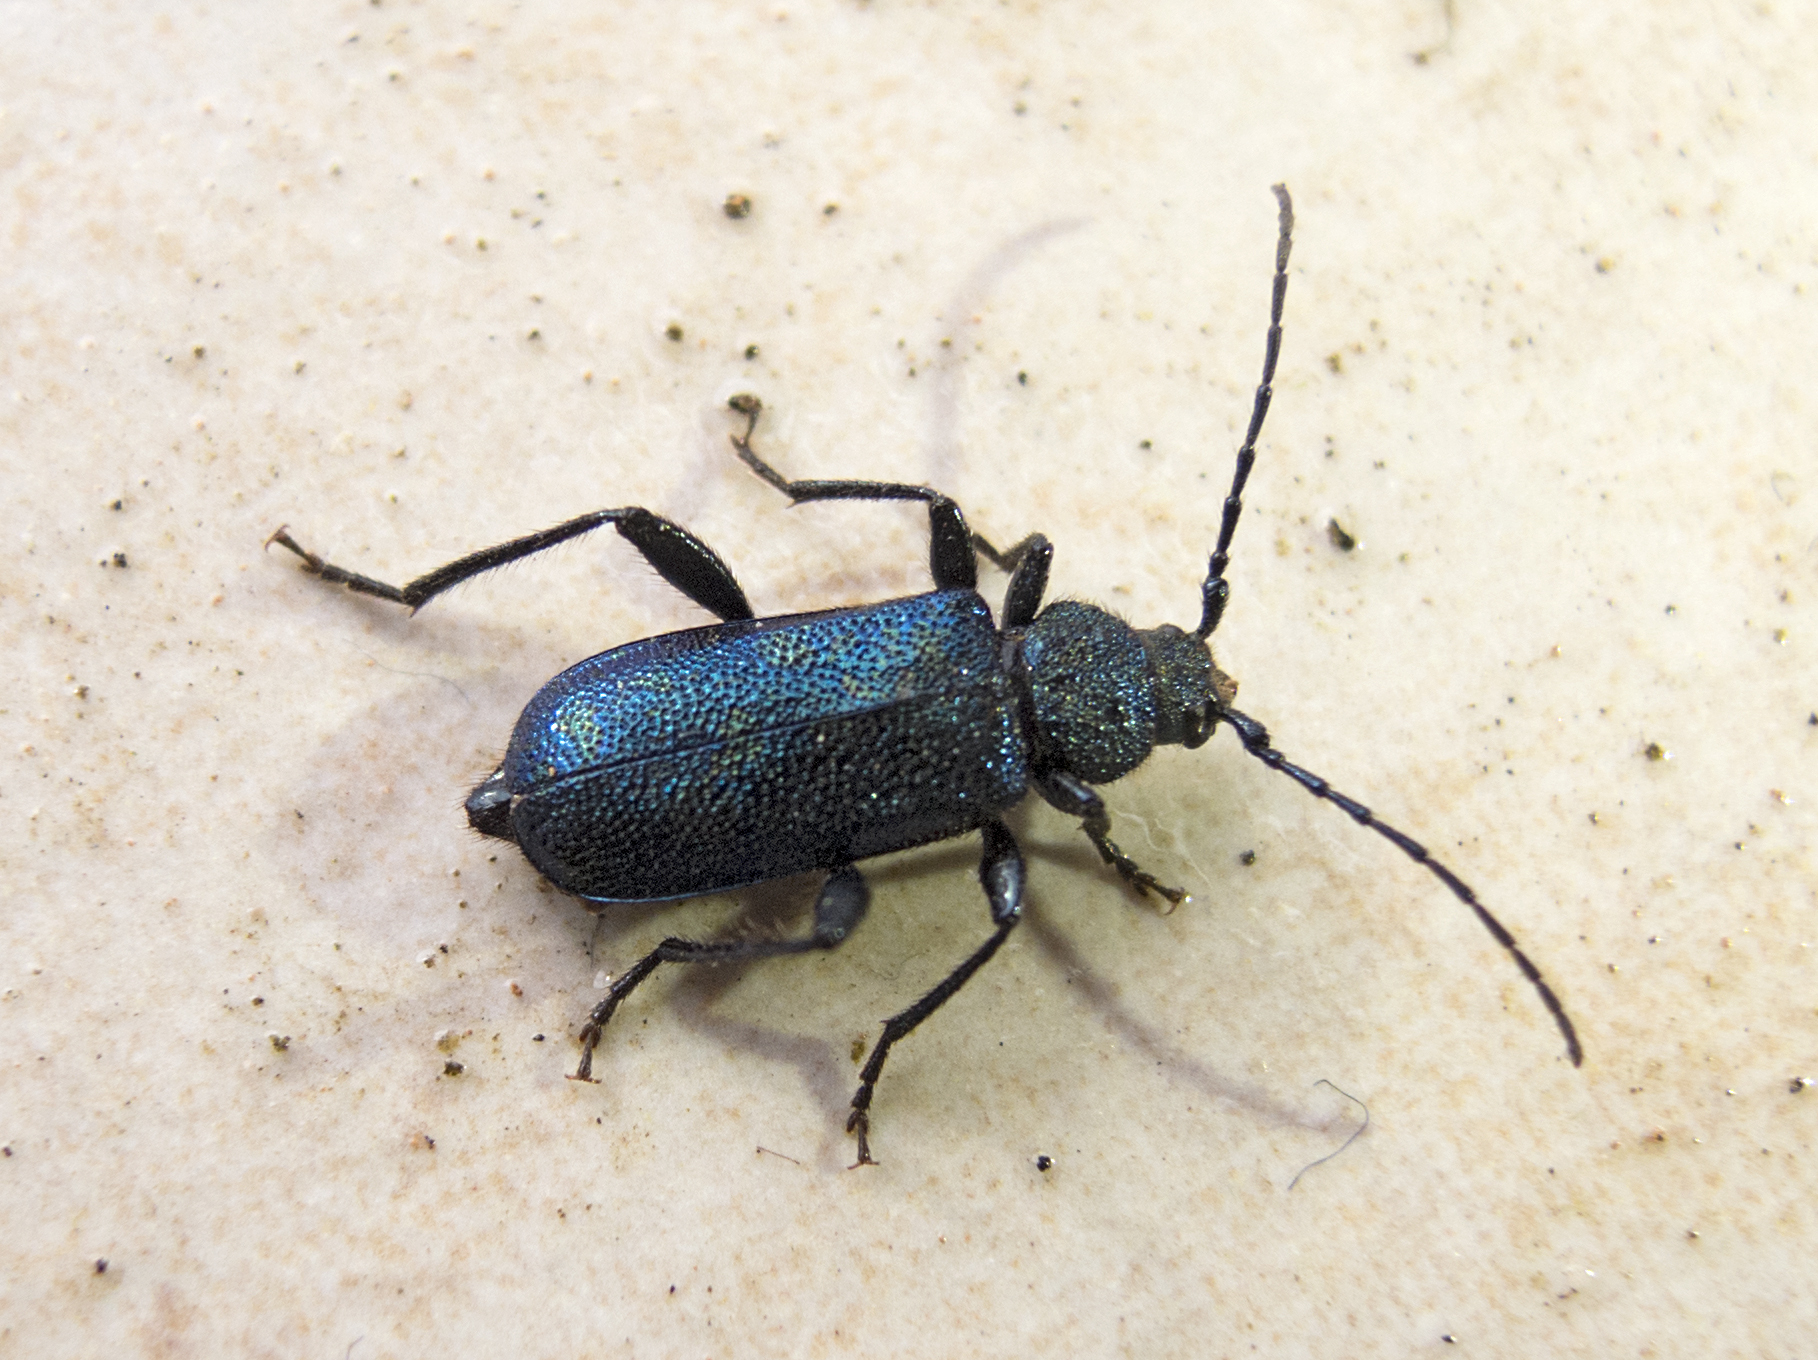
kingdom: Animalia
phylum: Arthropoda
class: Insecta
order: Coleoptera
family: Cerambycidae
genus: Callidium
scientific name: Callidium violaceum
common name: Violet tanbark beetle
